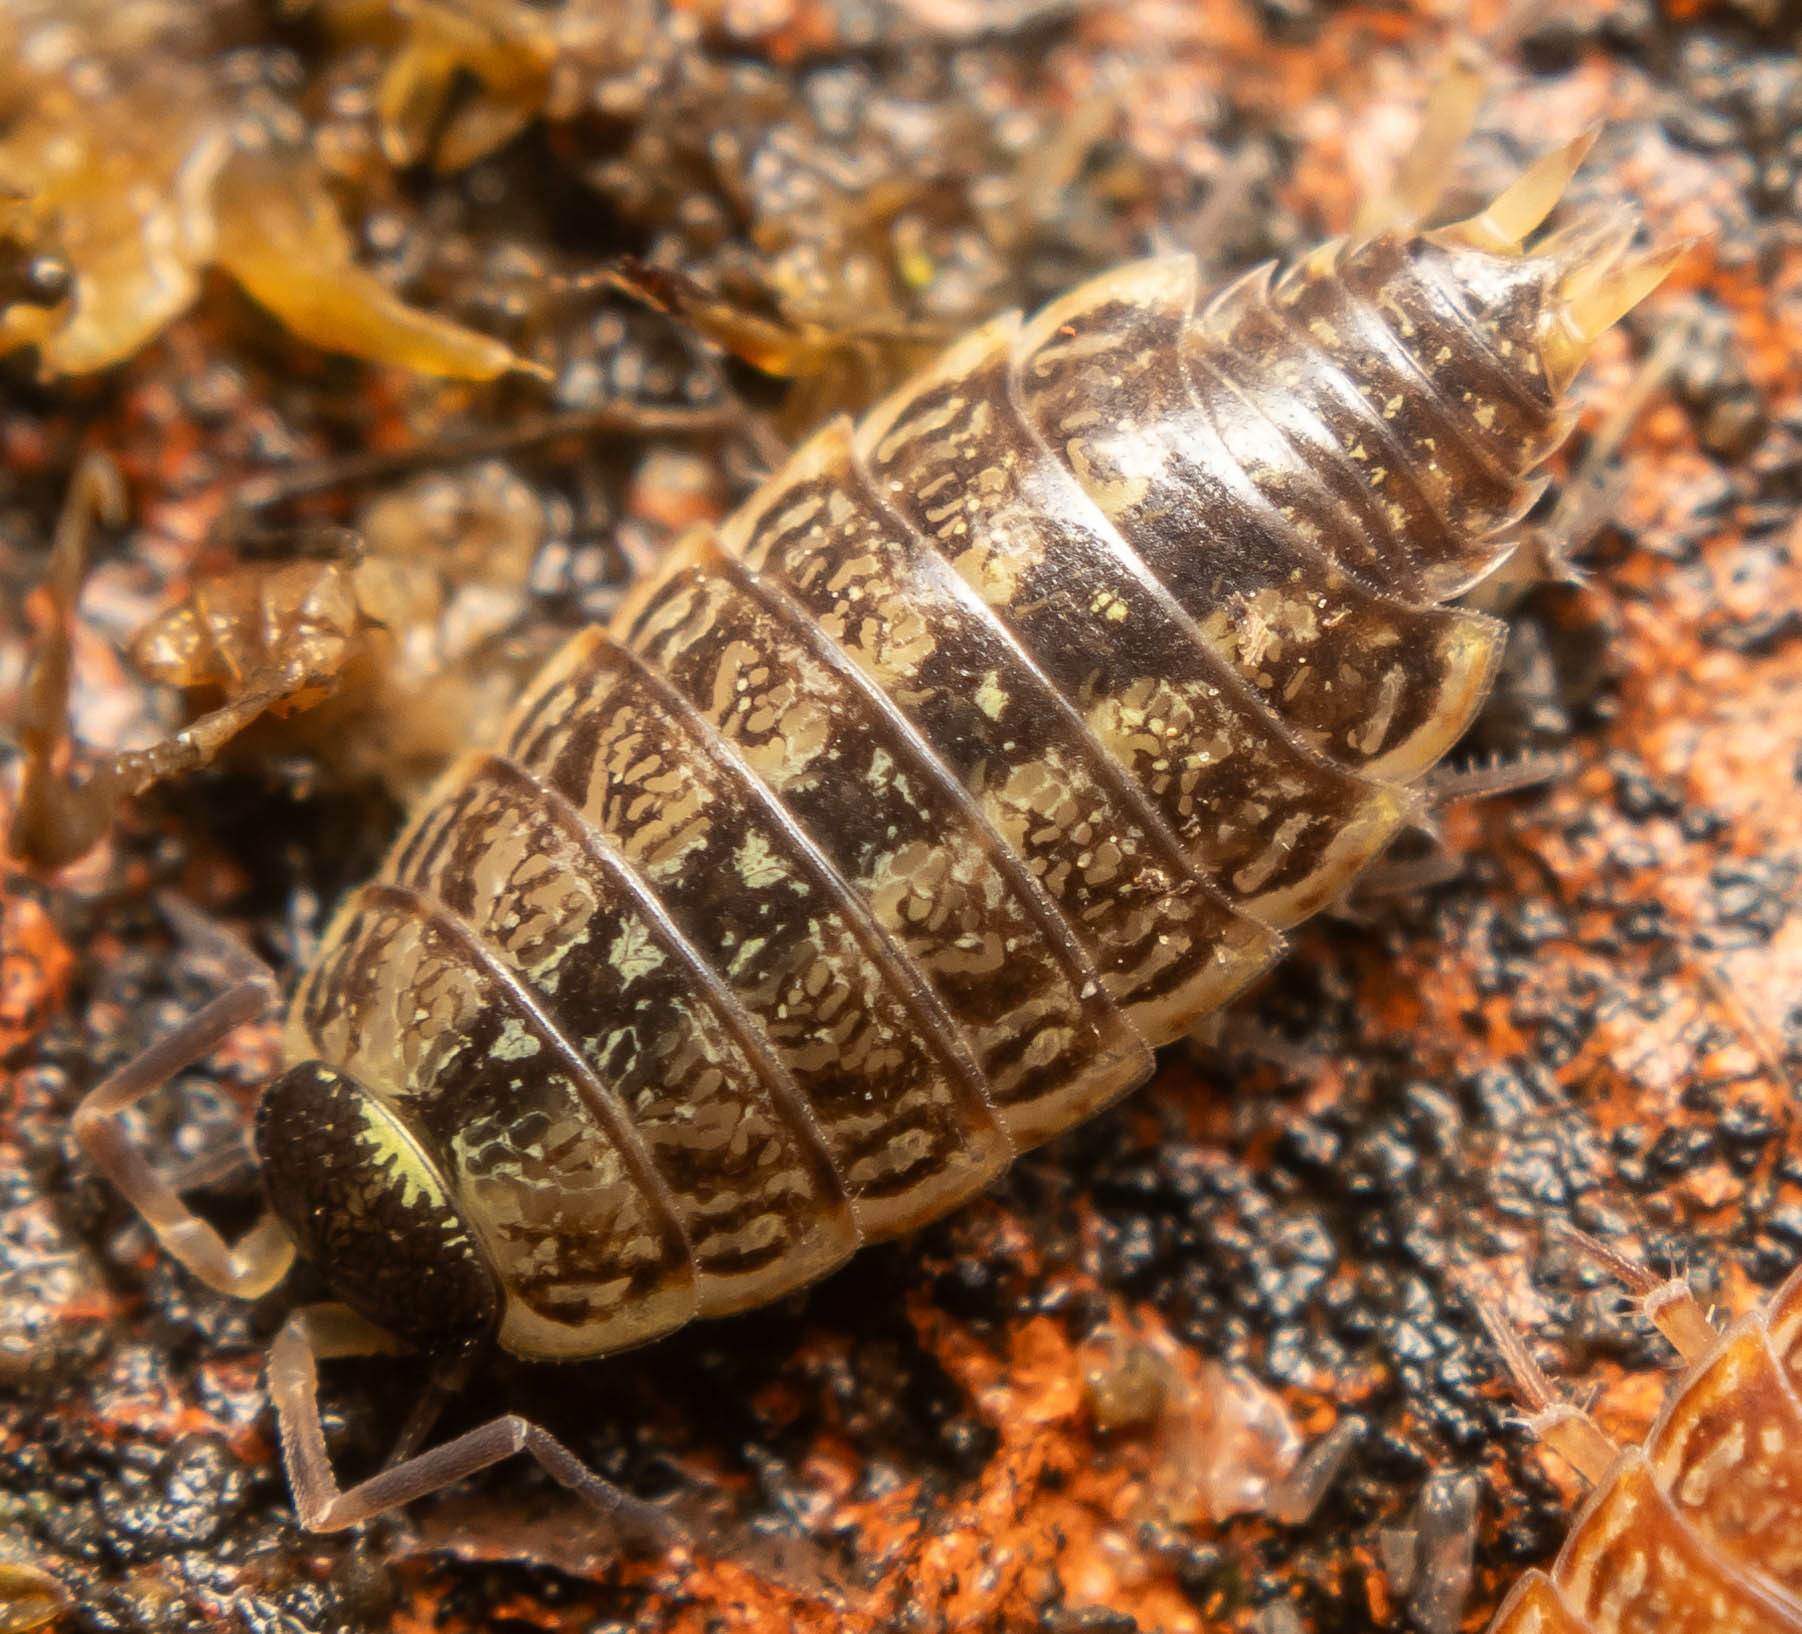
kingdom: Animalia
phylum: Arthropoda
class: Malacostraca
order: Isopoda
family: Philosciidae
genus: Philoscia
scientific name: Philoscia muscorum
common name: Common striped woodlouse
